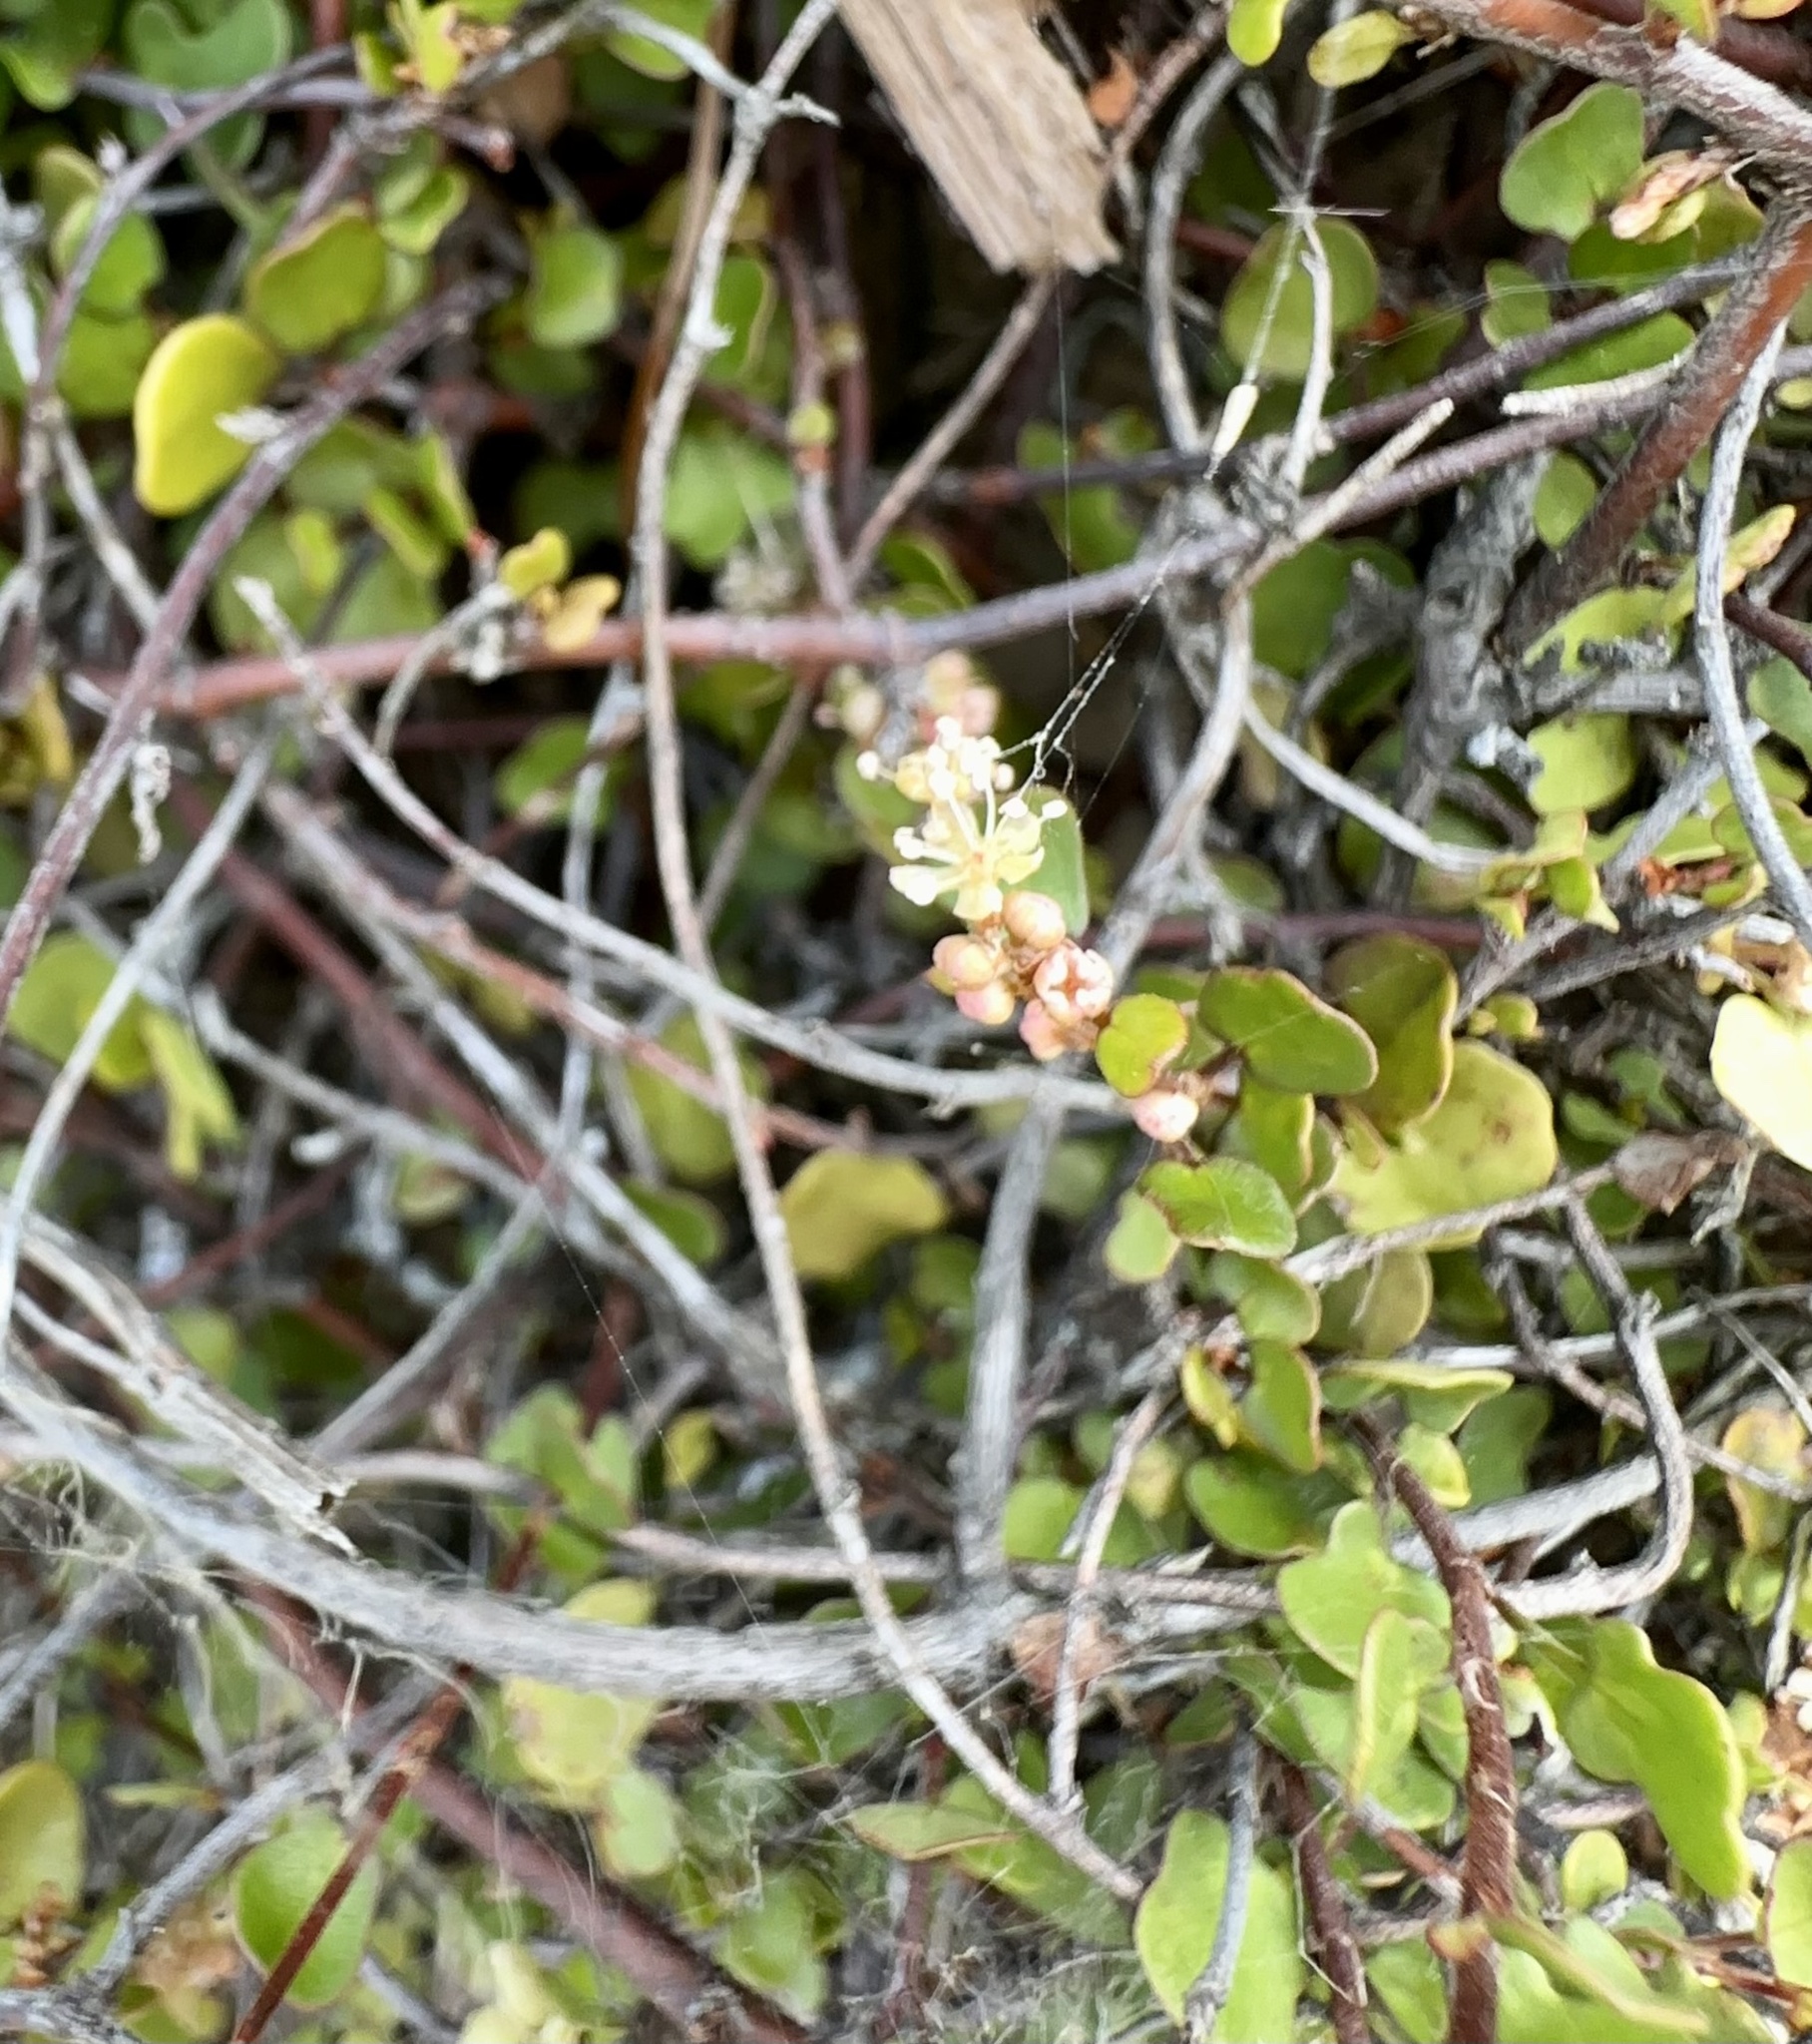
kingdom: Plantae
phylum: Tracheophyta
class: Magnoliopsida
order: Caryophyllales
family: Polygonaceae
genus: Muehlenbeckia
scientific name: Muehlenbeckia complexa
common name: Wireplant
